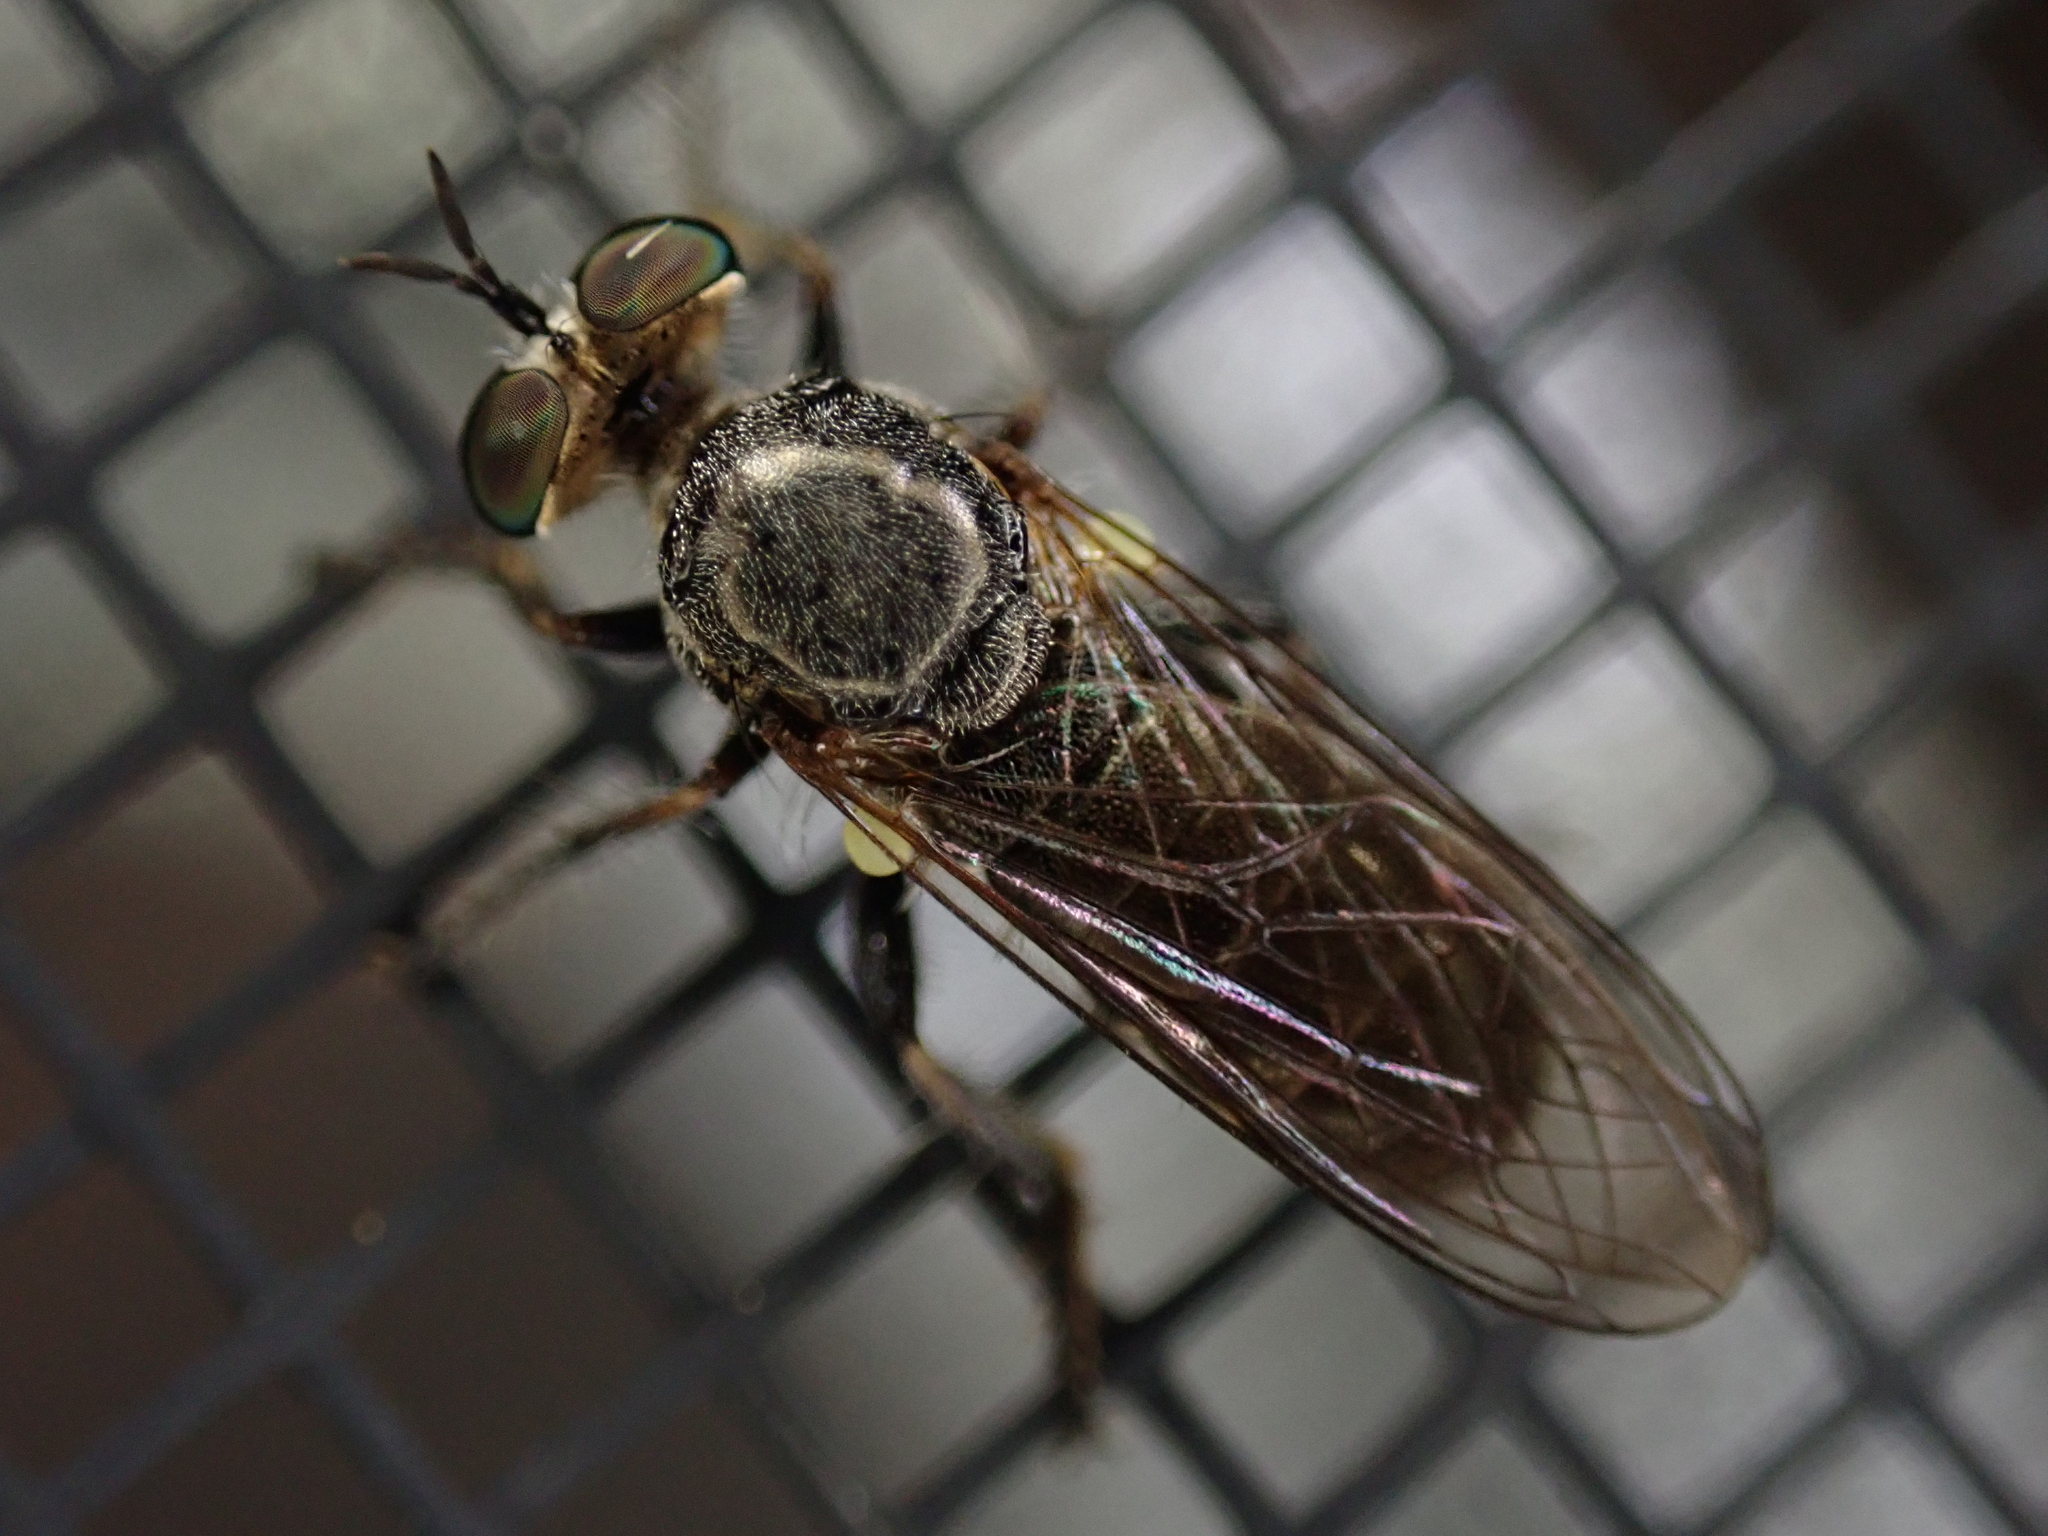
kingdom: Animalia
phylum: Arthropoda
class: Insecta
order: Diptera
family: Asilidae
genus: Atomosia
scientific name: Atomosia puella
